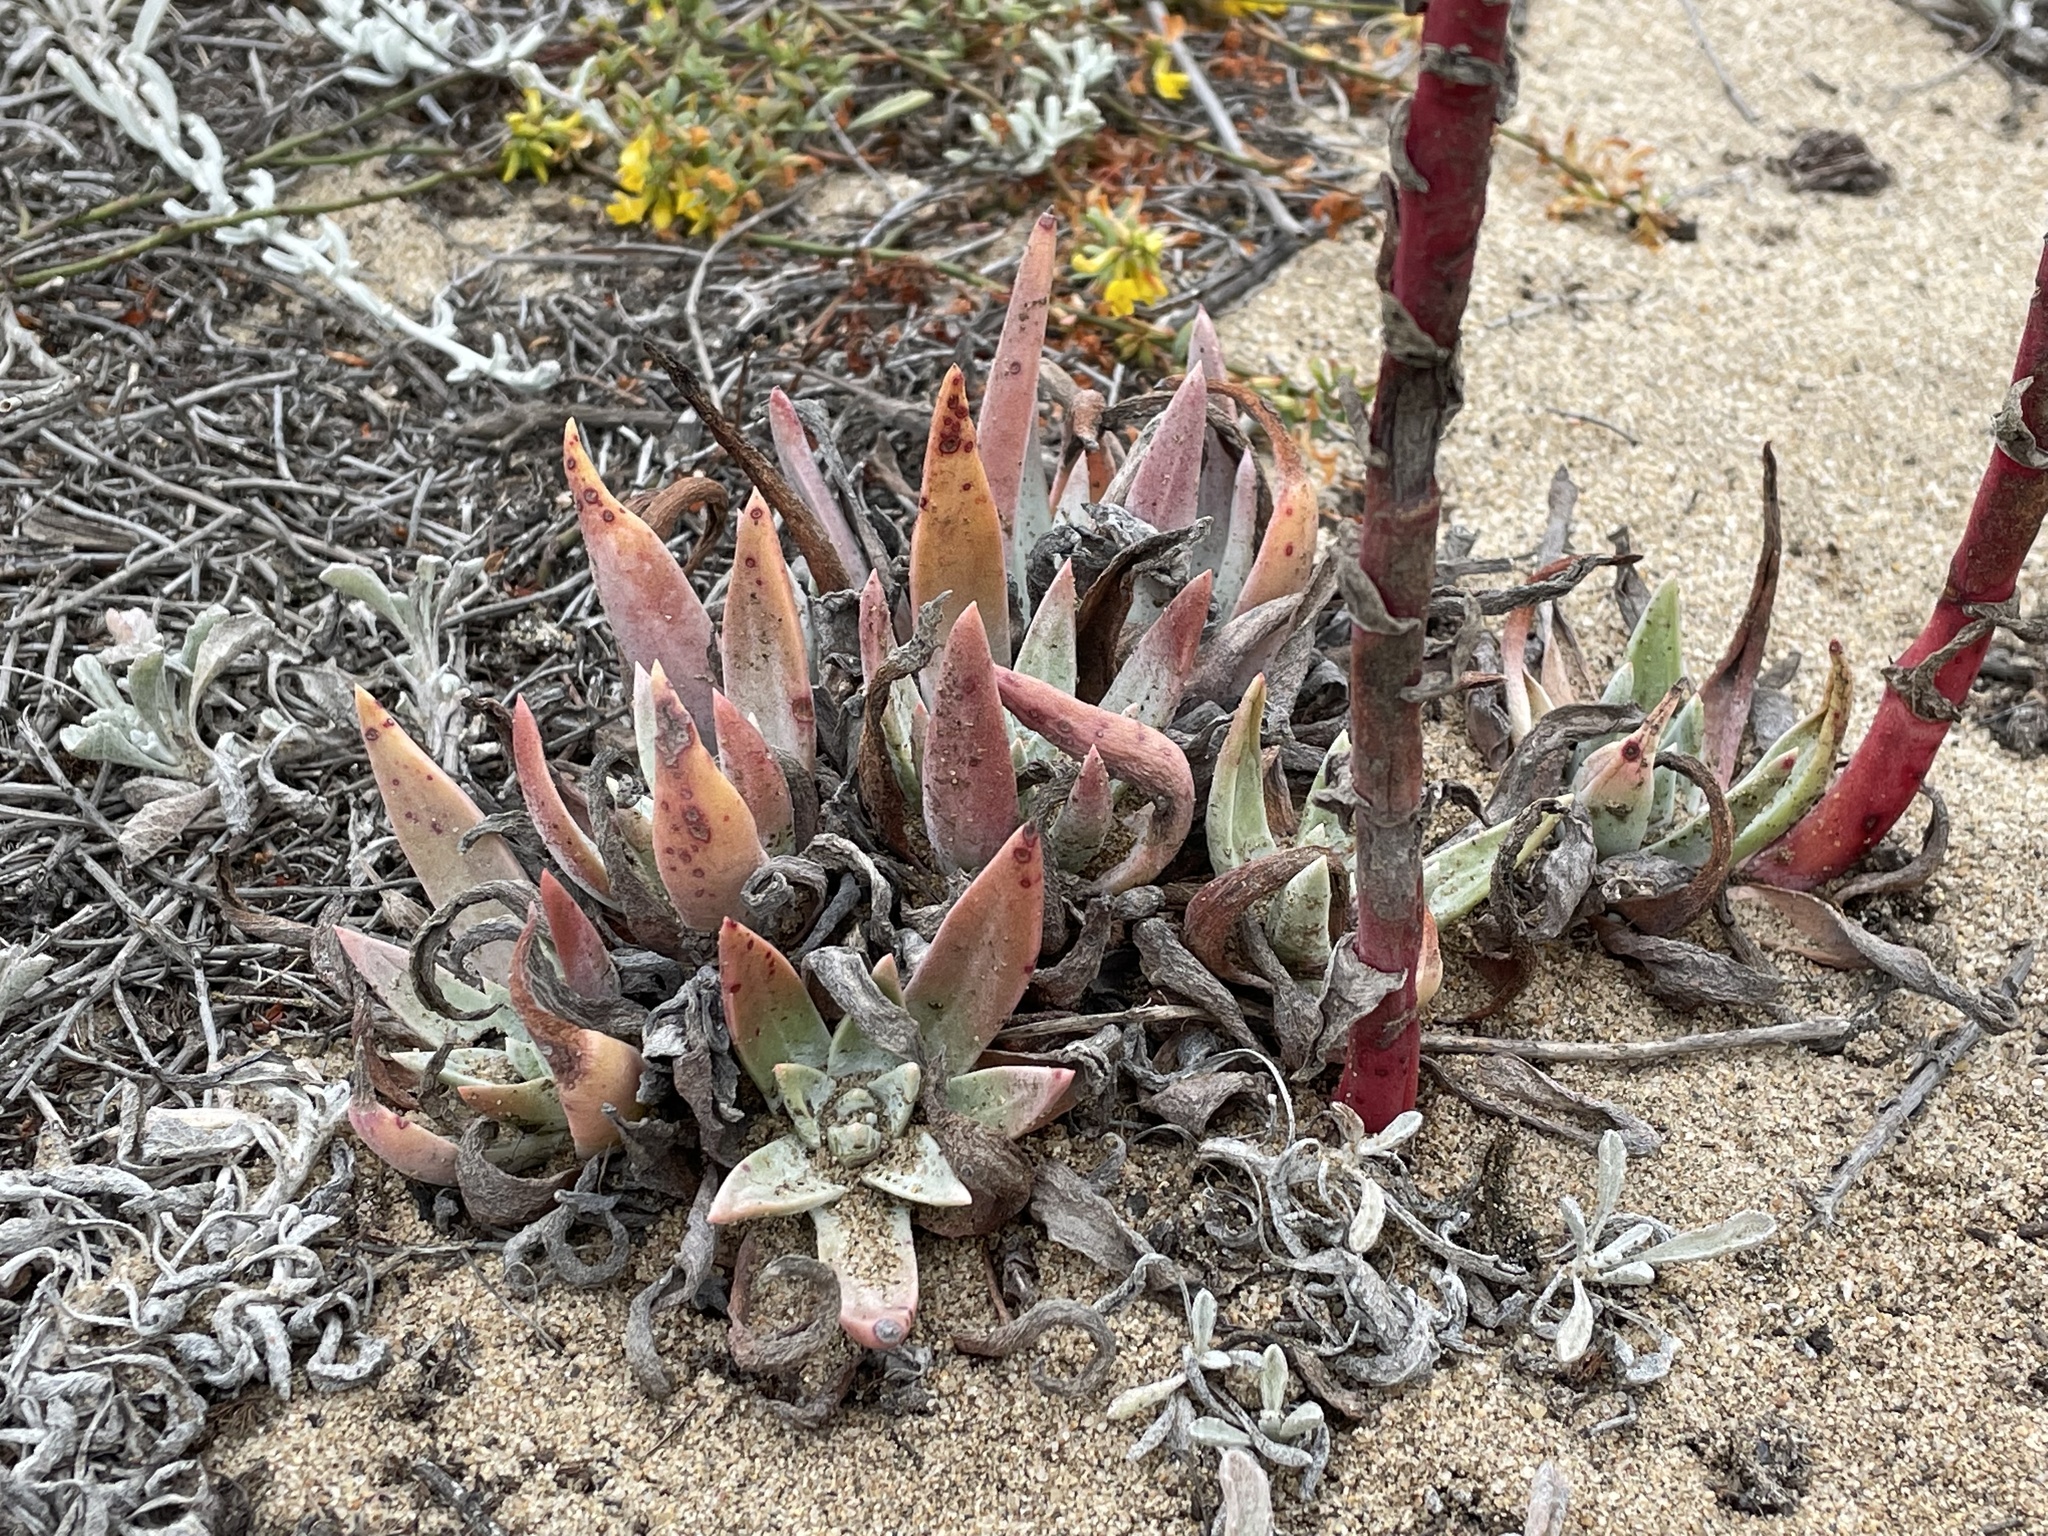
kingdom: Plantae
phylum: Tracheophyta
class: Magnoliopsida
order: Saxifragales
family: Crassulaceae
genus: Dudleya
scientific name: Dudleya caespitosa
